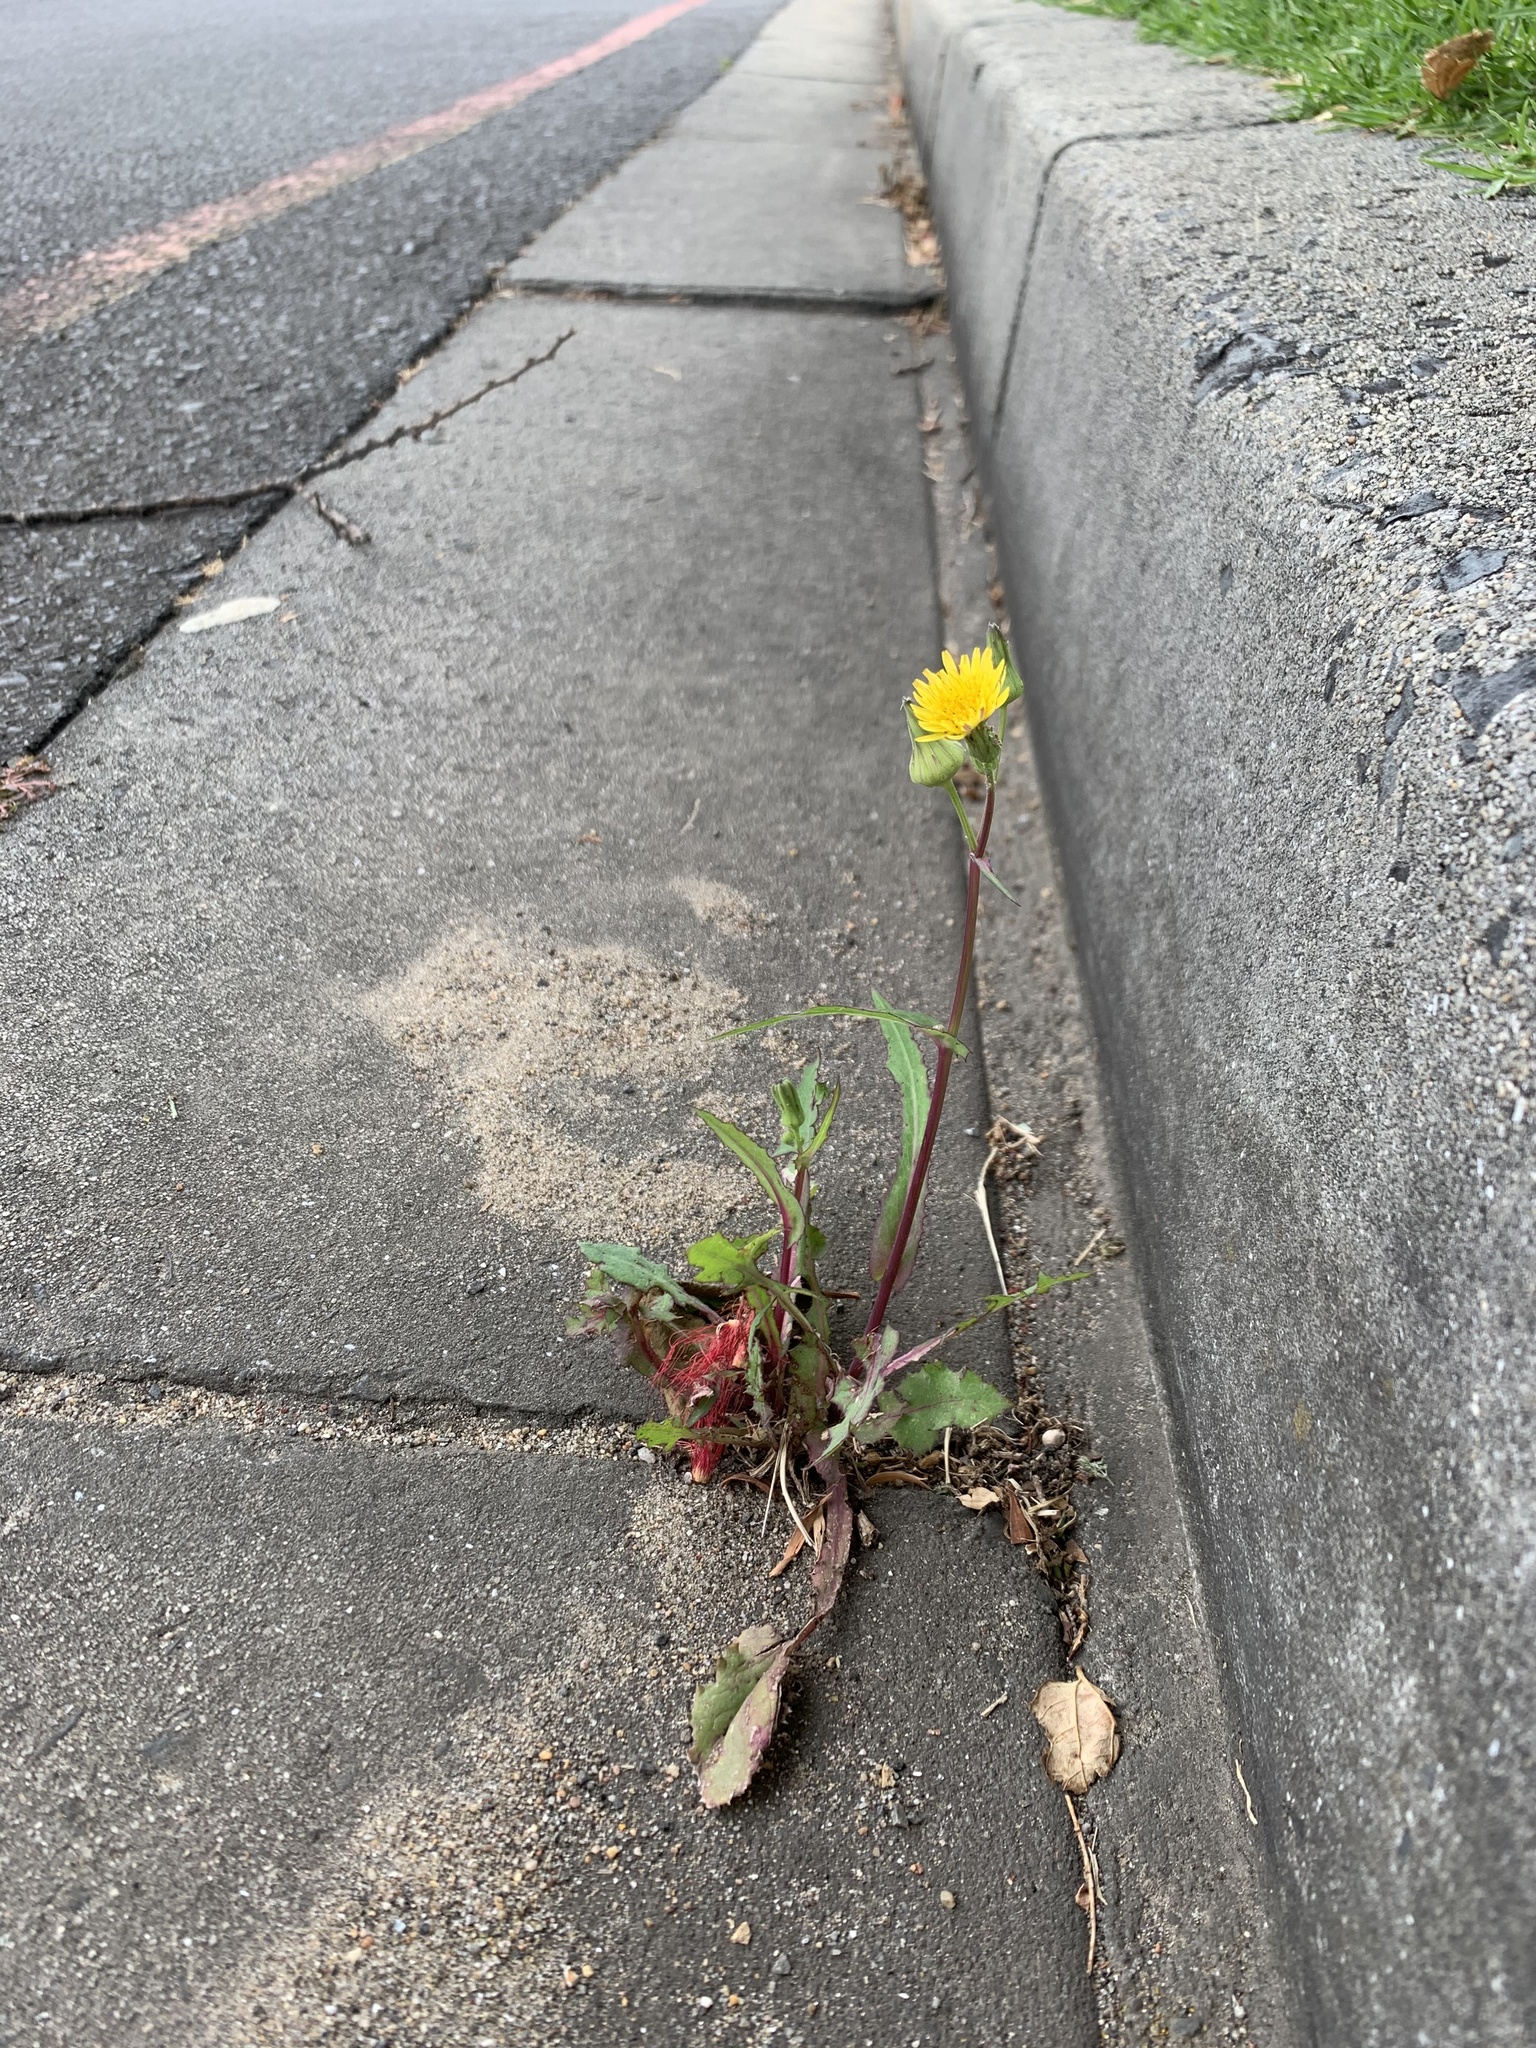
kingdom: Plantae
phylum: Tracheophyta
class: Magnoliopsida
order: Asterales
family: Asteraceae
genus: Sonchus
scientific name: Sonchus oleraceus
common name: Common sowthistle
